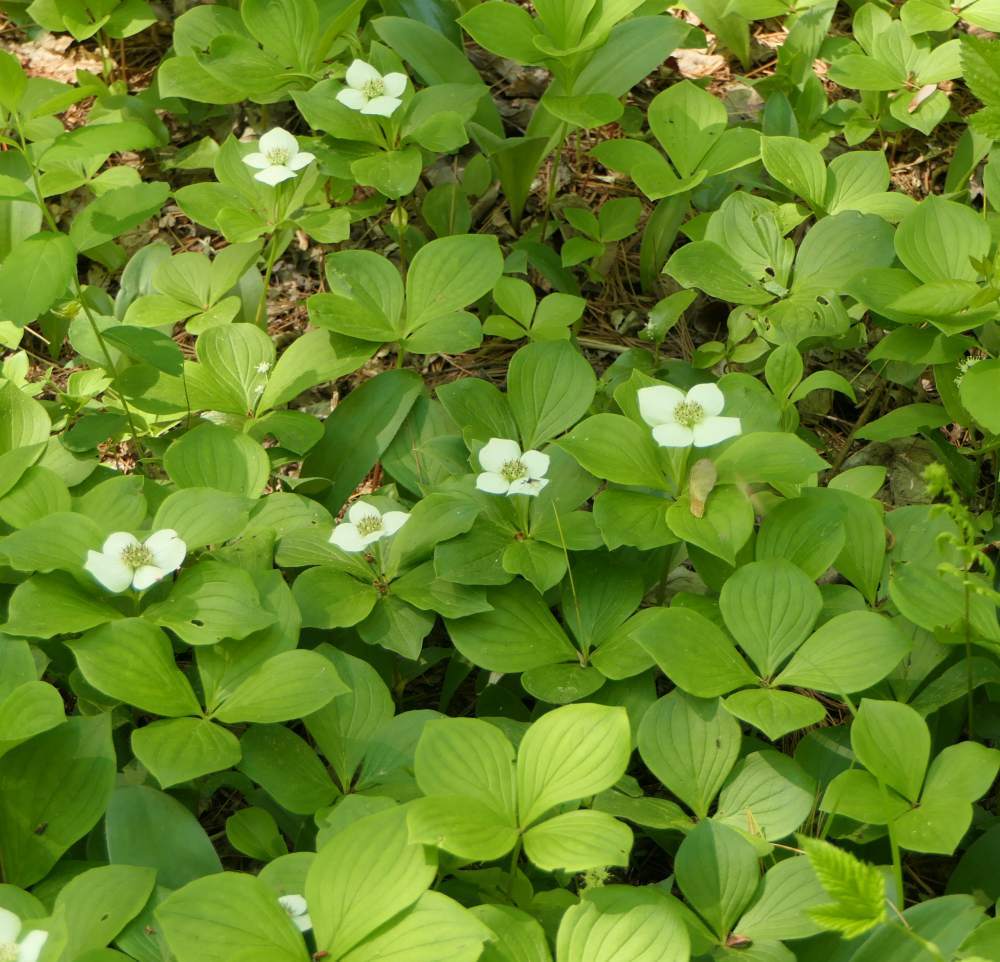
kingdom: Plantae
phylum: Tracheophyta
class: Magnoliopsida
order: Cornales
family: Cornaceae
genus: Cornus
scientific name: Cornus canadensis
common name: Creeping dogwood
